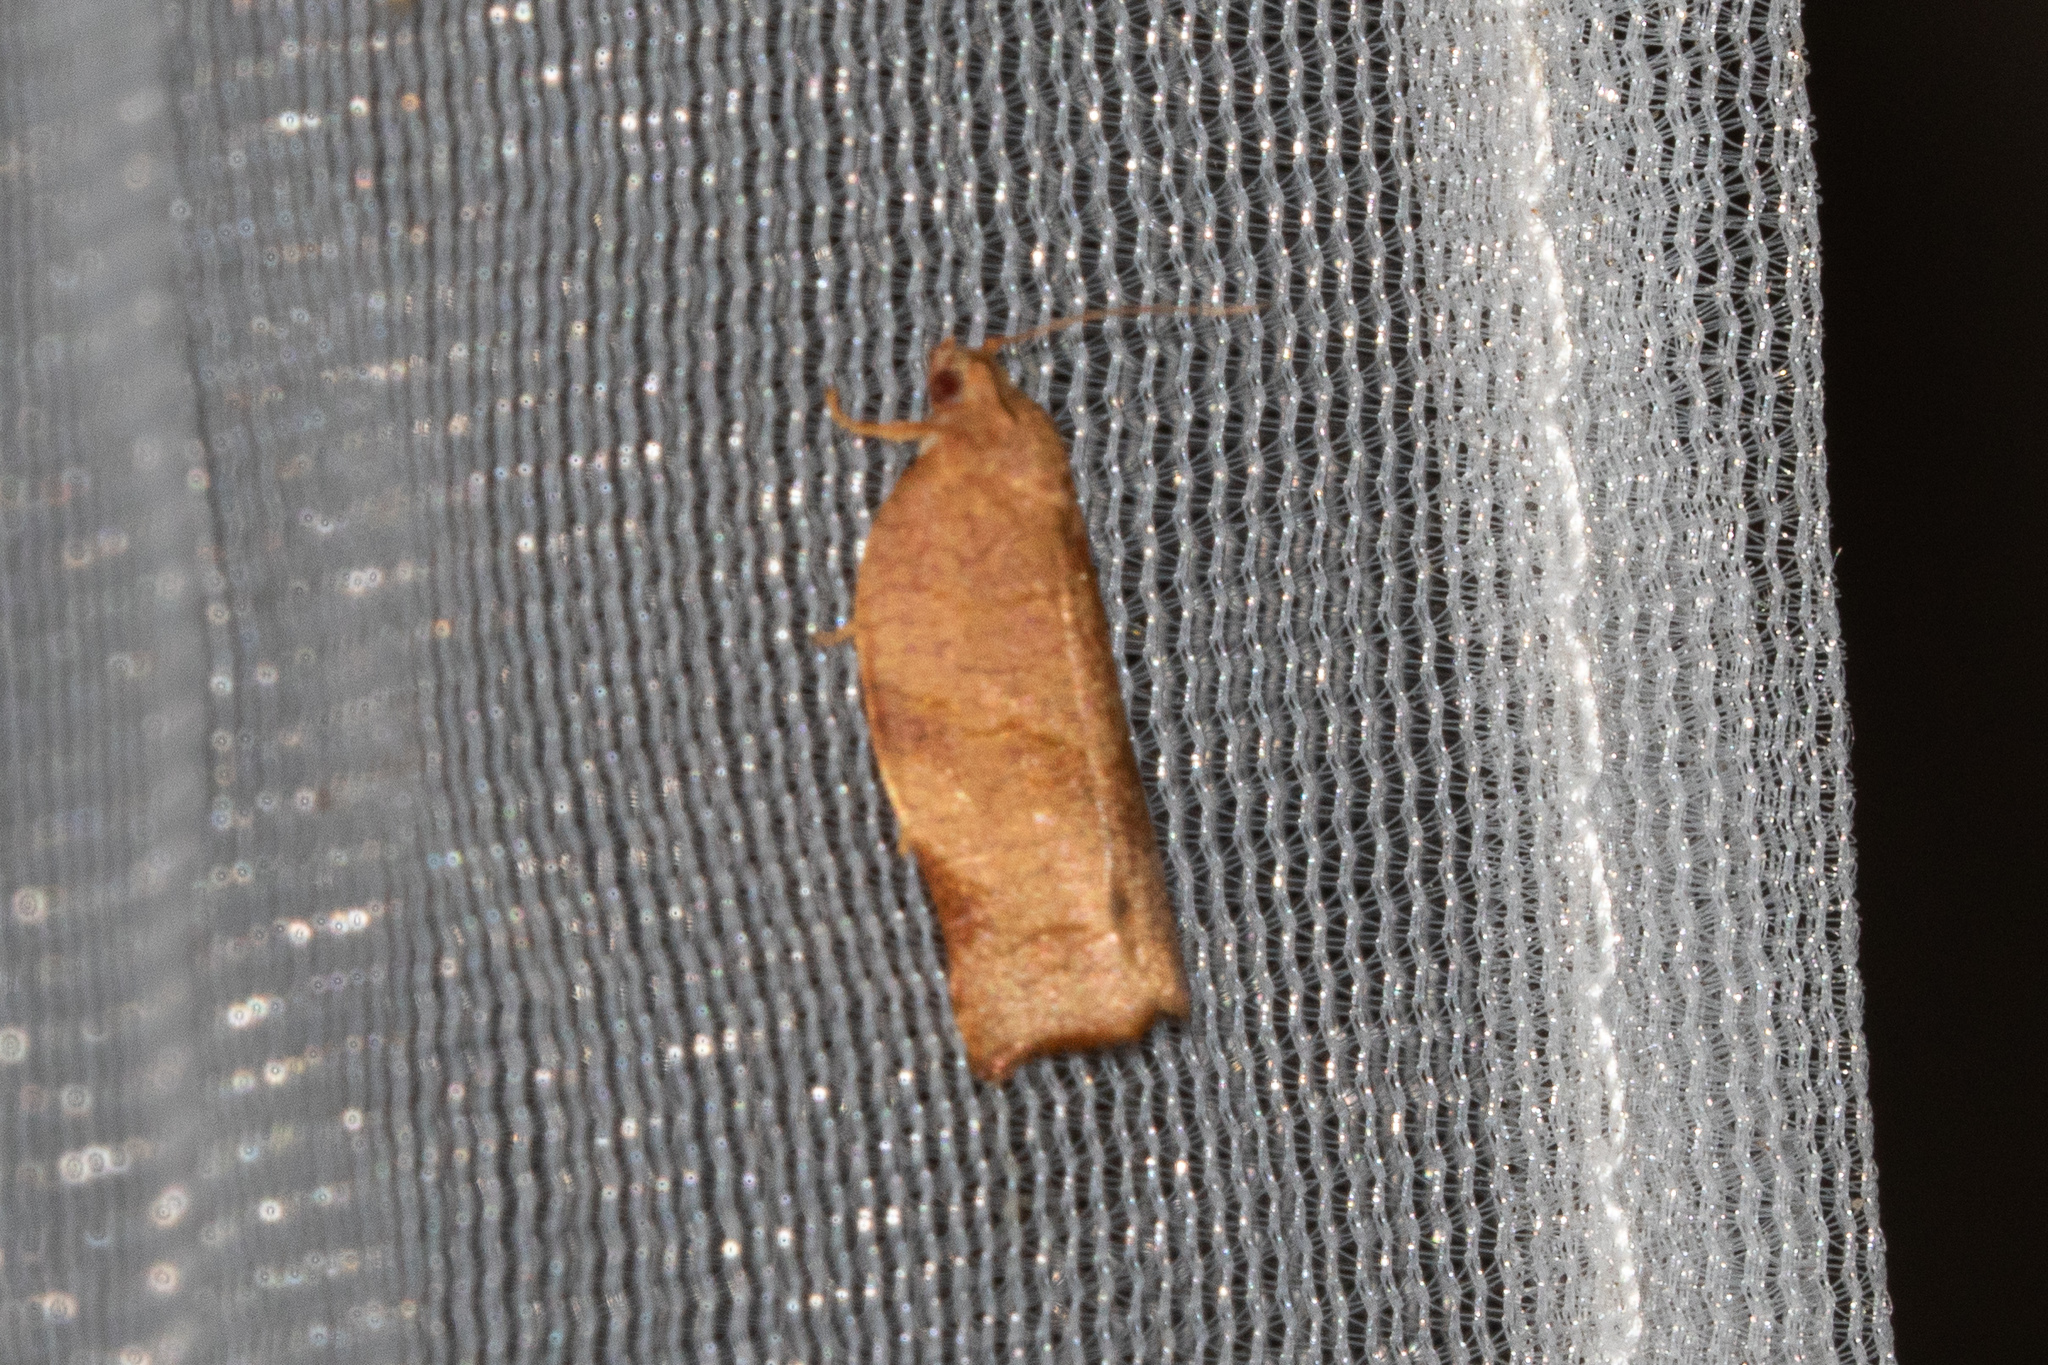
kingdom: Animalia
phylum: Arthropoda
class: Insecta
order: Lepidoptera
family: Tortricidae
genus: Choristoneura
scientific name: Choristoneura rosaceana
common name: Oblique-banded leafroller moth
